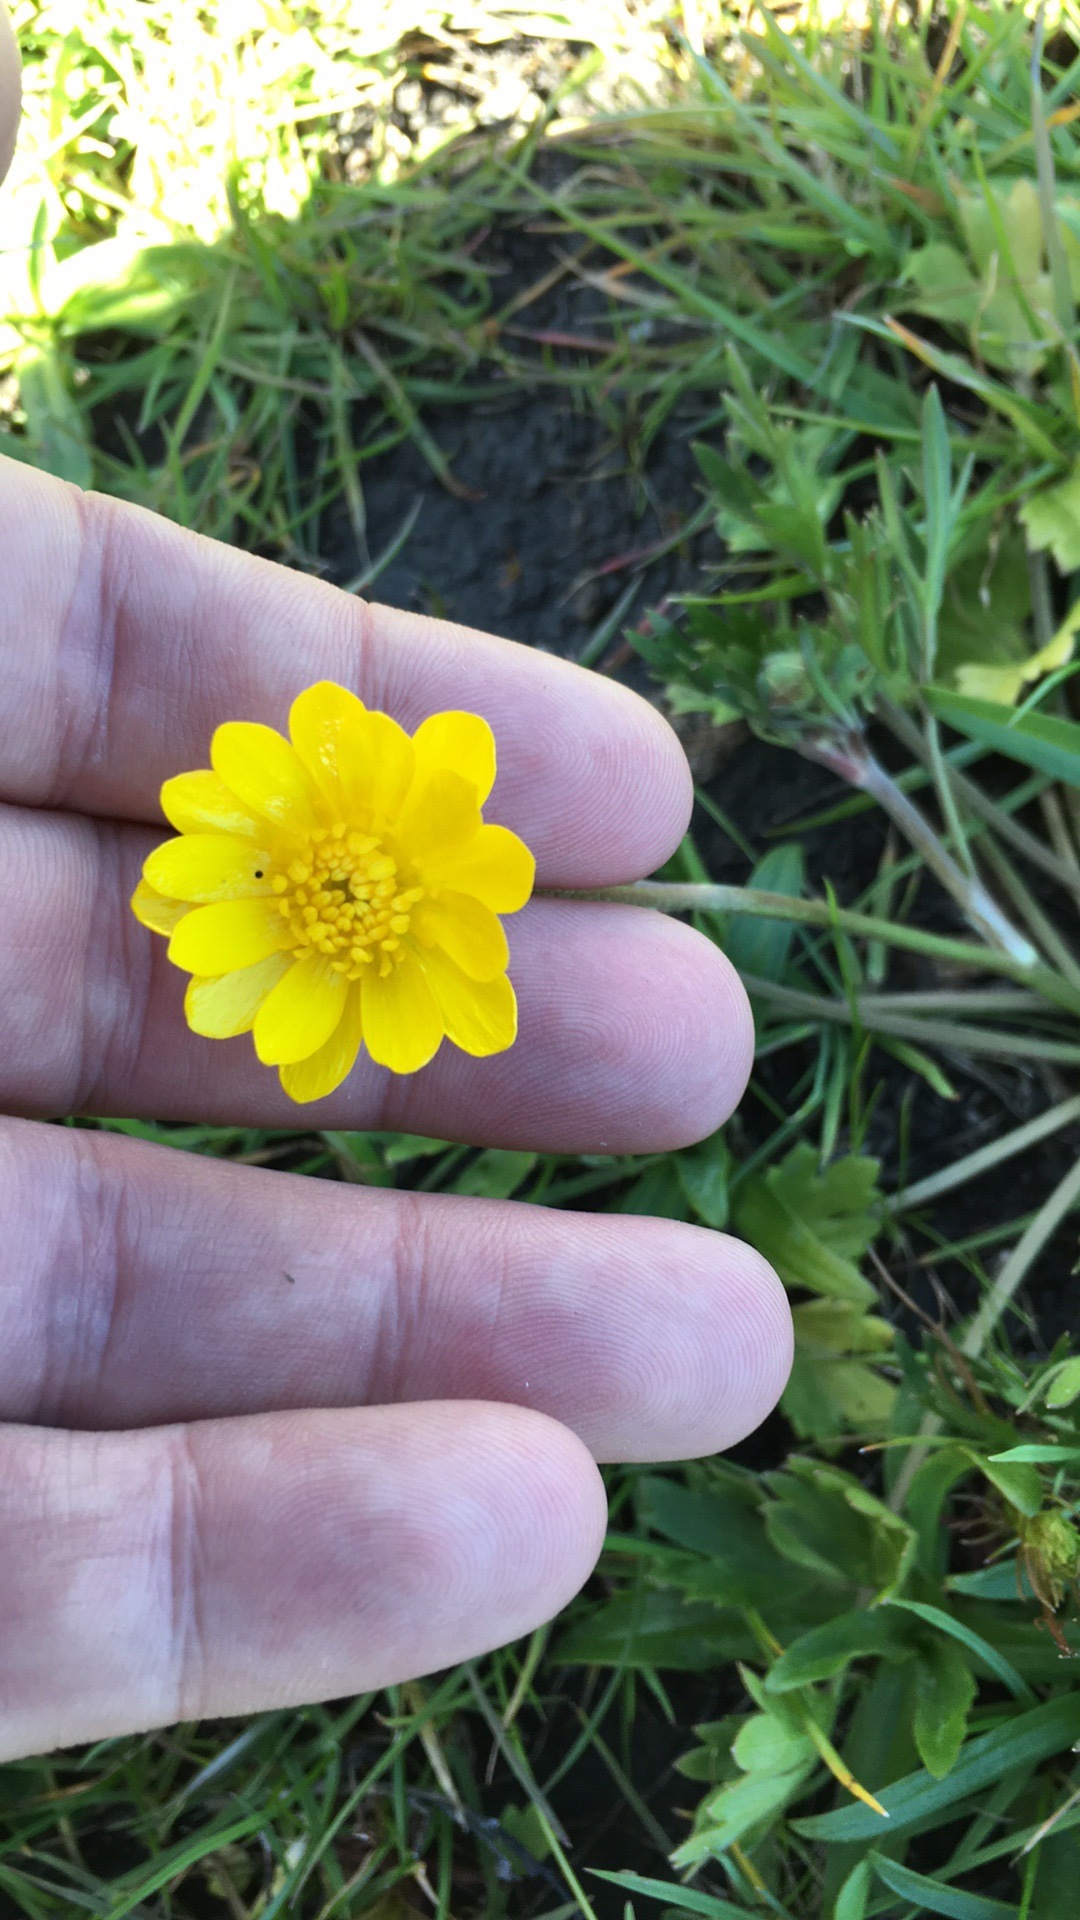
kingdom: Plantae
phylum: Tracheophyta
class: Magnoliopsida
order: Ranunculales
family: Ranunculaceae
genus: Ranunculus
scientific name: Ranunculus californicus
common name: California buttercup
